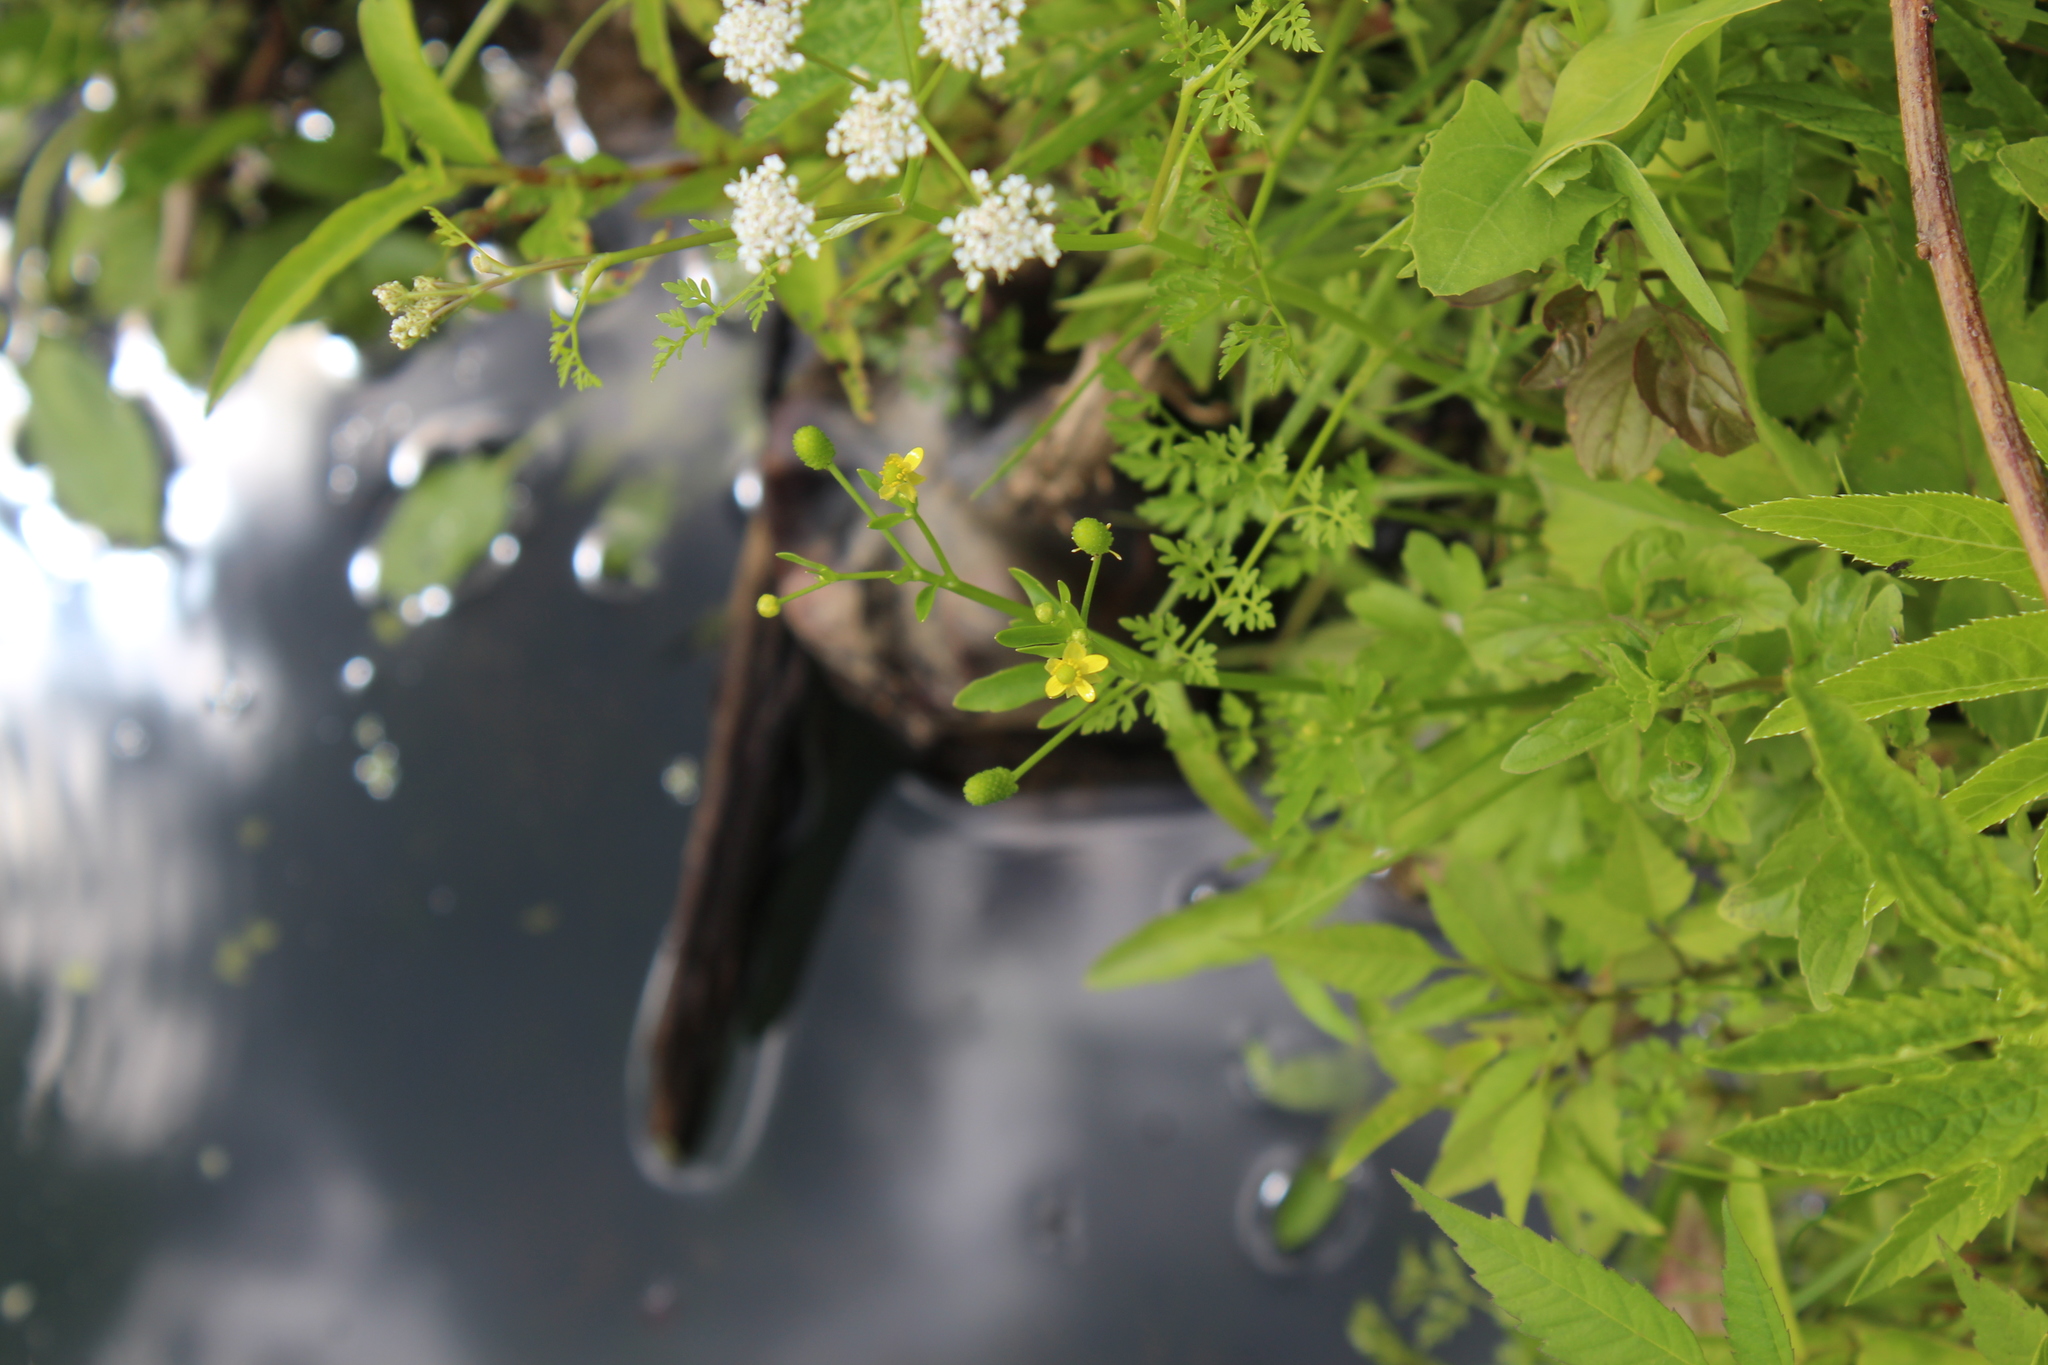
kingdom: Plantae
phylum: Tracheophyta
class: Magnoliopsida
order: Ranunculales
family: Ranunculaceae
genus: Ranunculus
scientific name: Ranunculus sceleratus
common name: Celery-leaved buttercup
